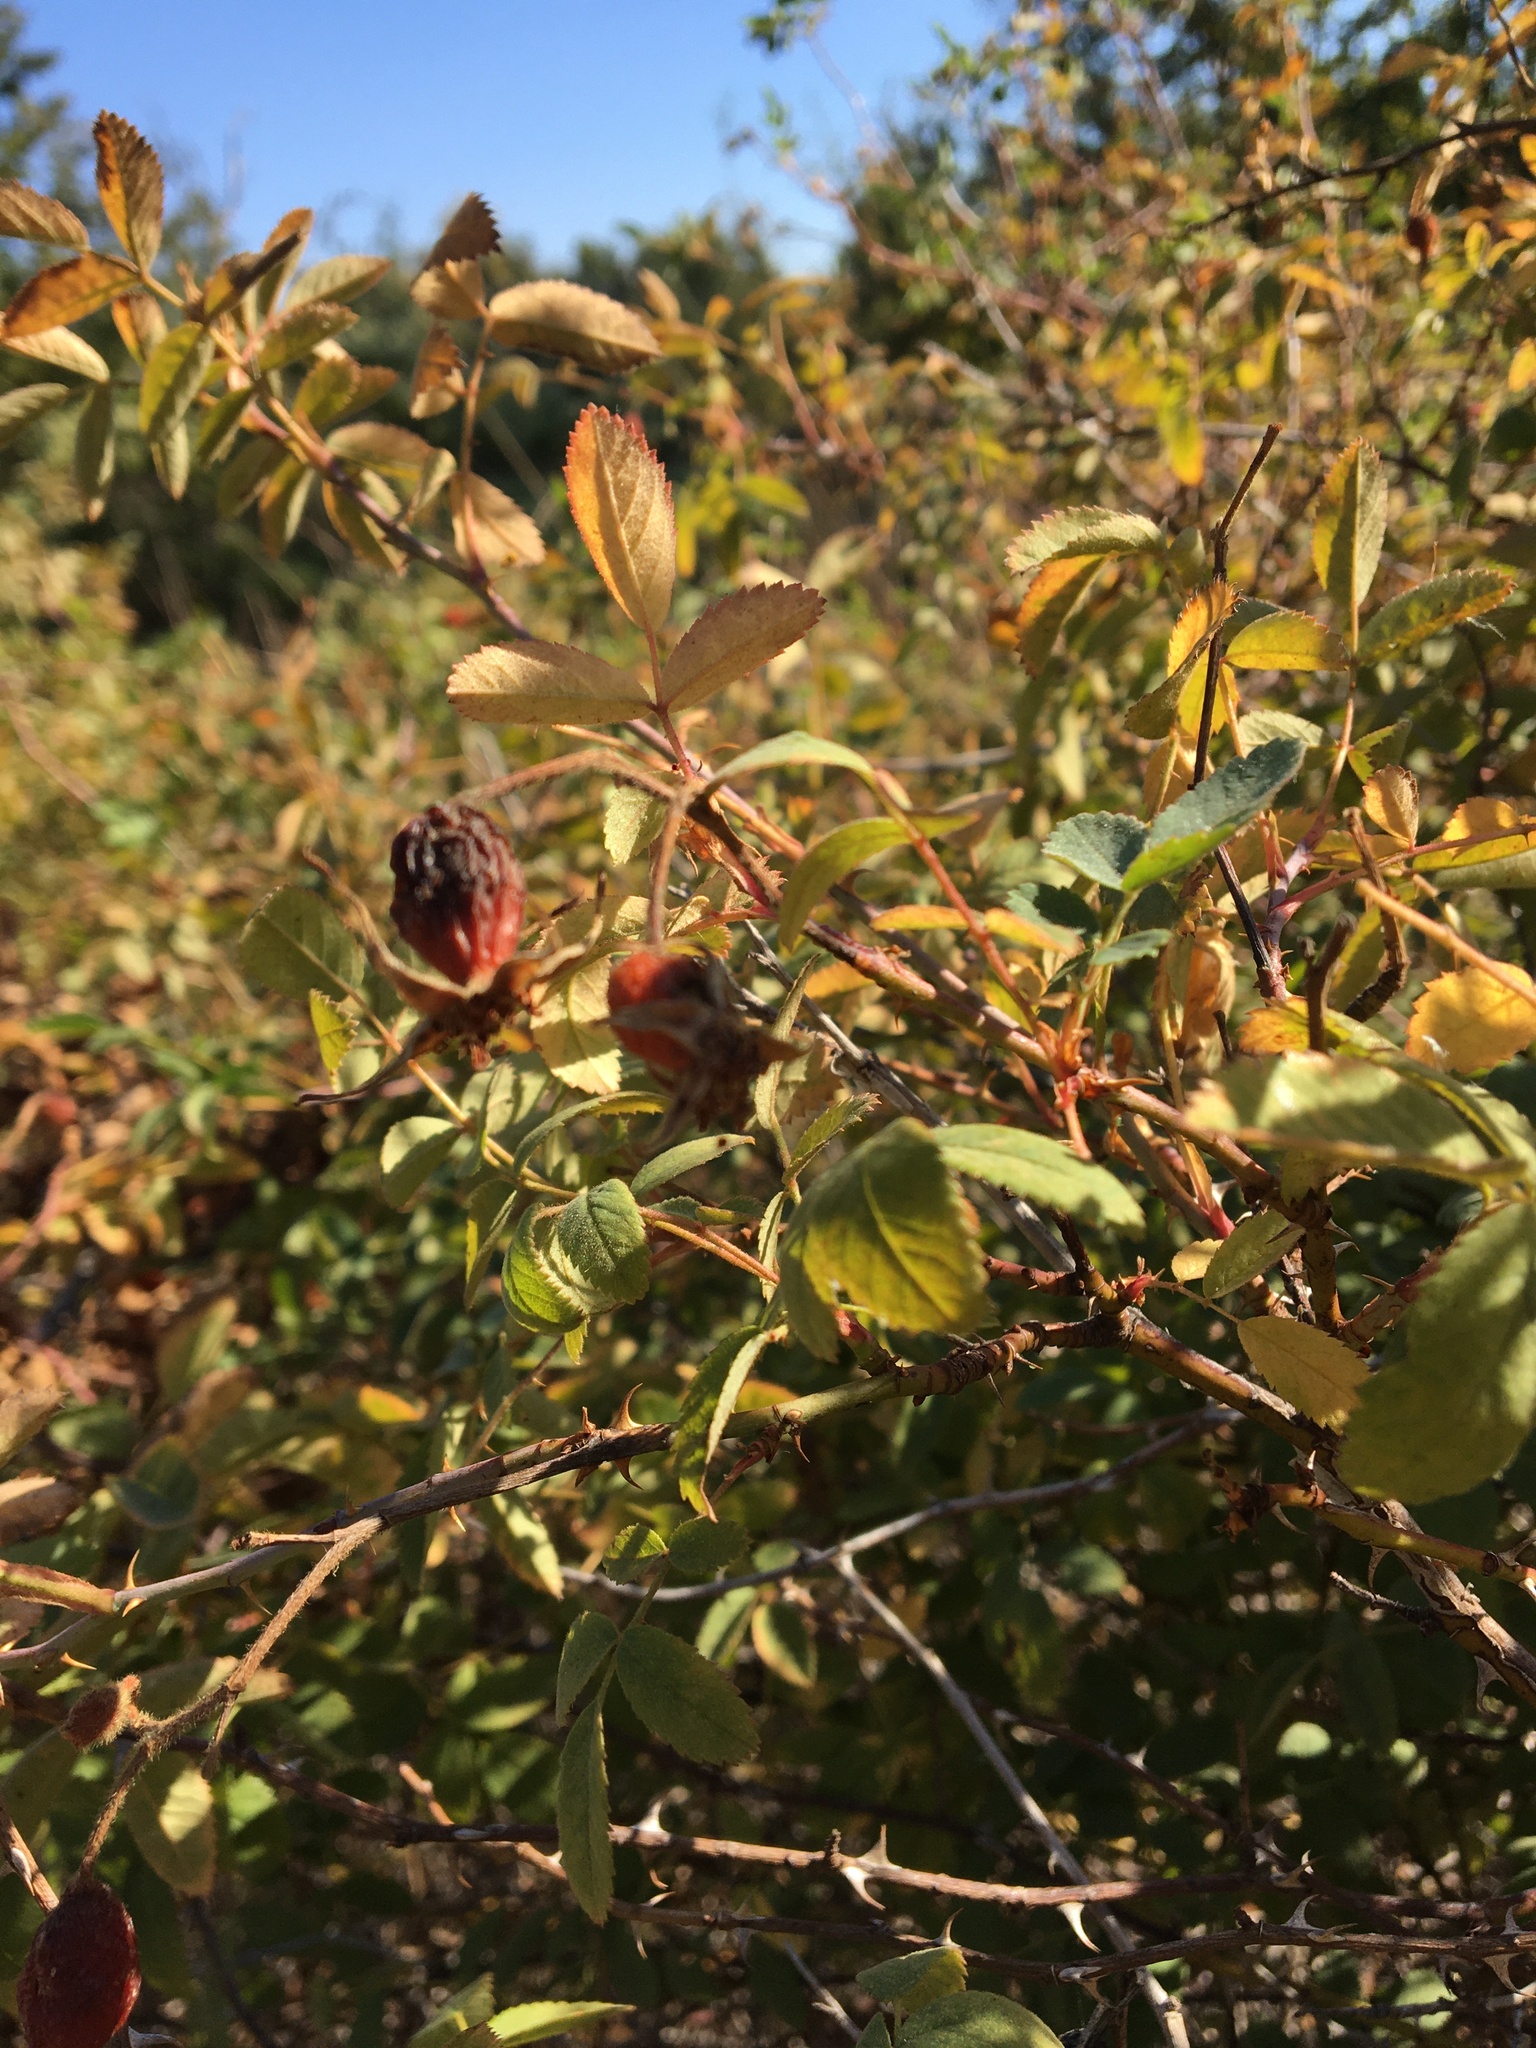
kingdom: Plantae
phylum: Tracheophyta
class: Magnoliopsida
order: Rosales
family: Rosaceae
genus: Rosa
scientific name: Rosa californica
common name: California rose
